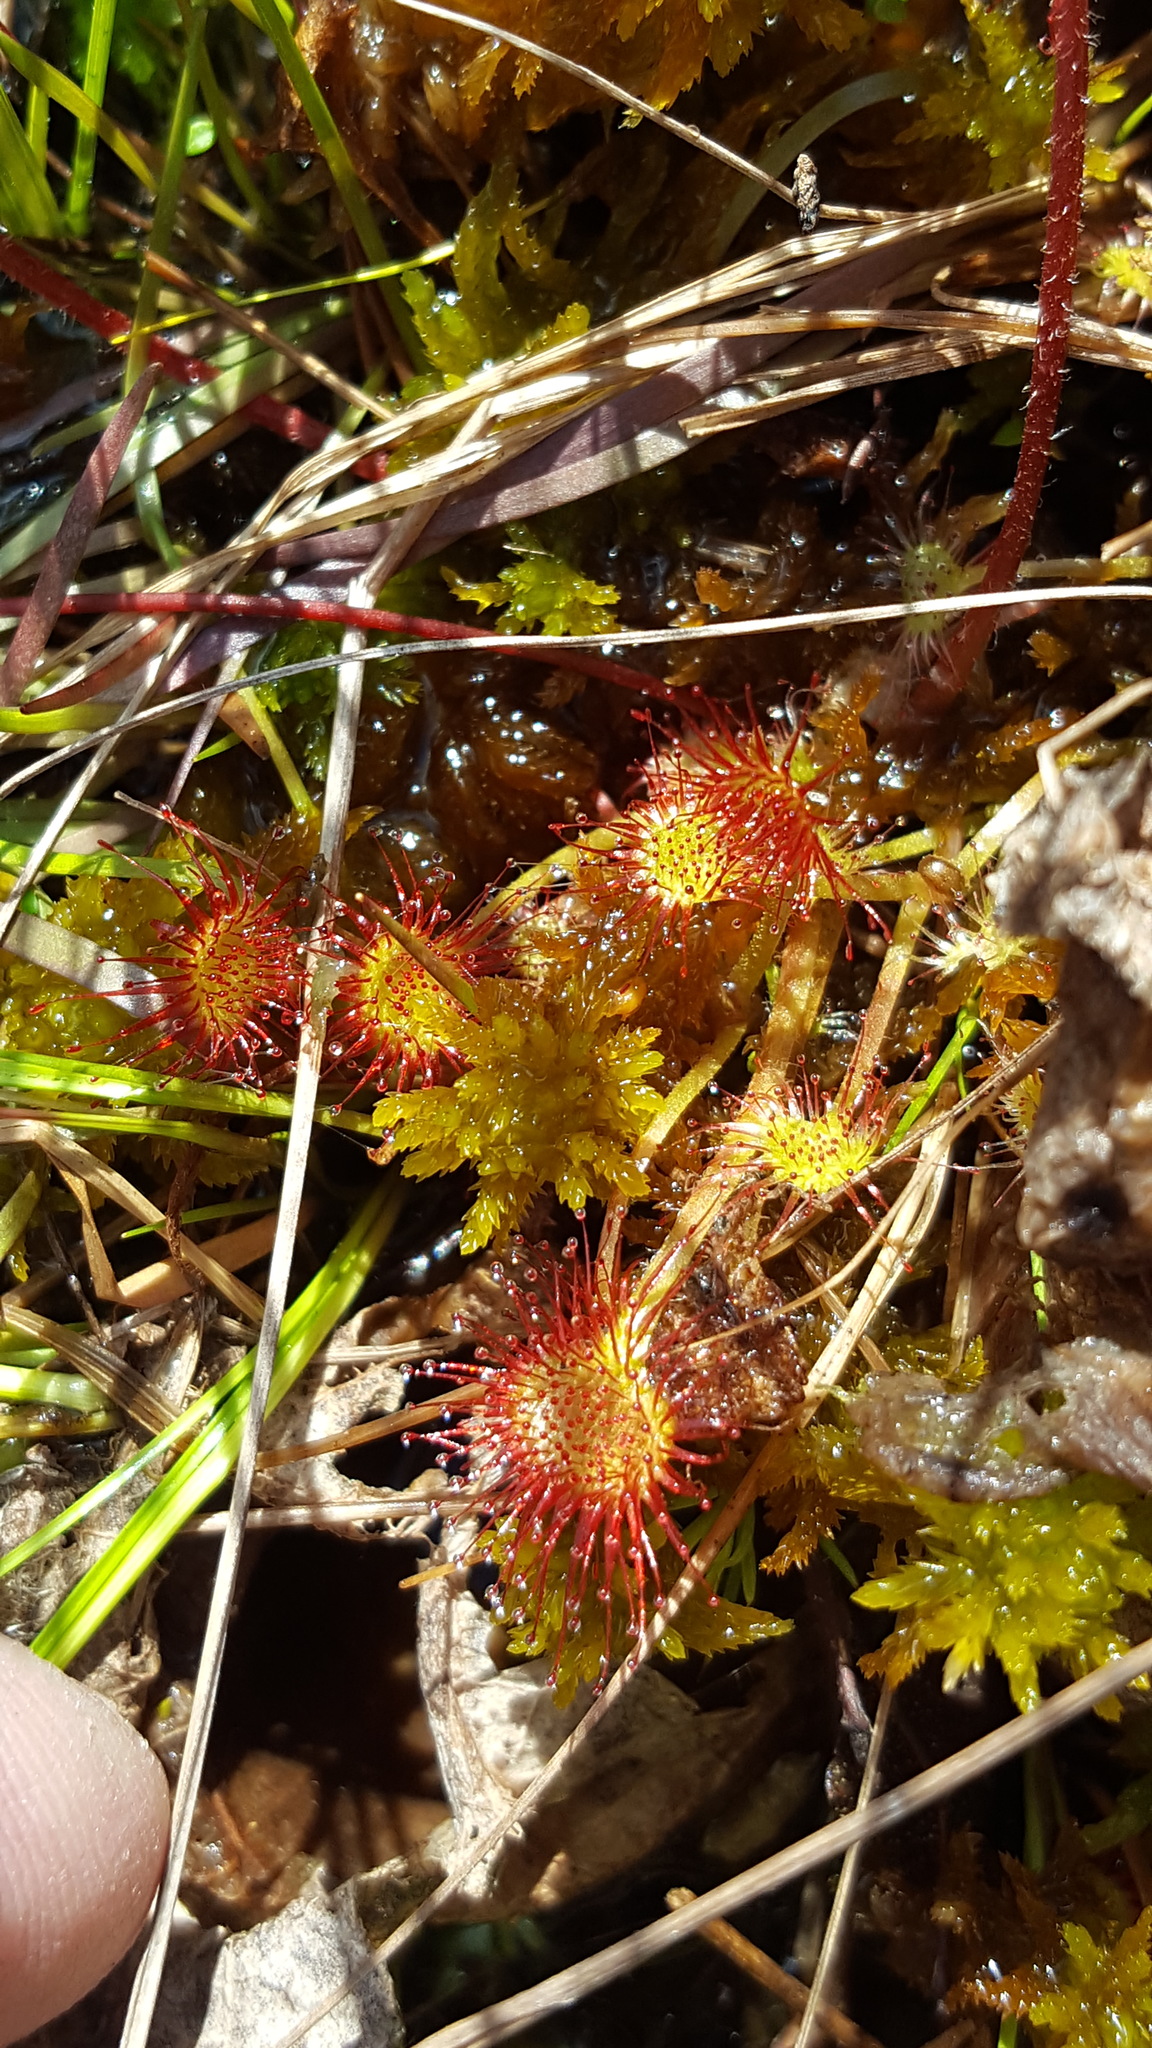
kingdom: Plantae
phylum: Tracheophyta
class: Magnoliopsida
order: Caryophyllales
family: Droseraceae
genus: Drosera
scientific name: Drosera rotundifolia
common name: Round-leaved sundew
